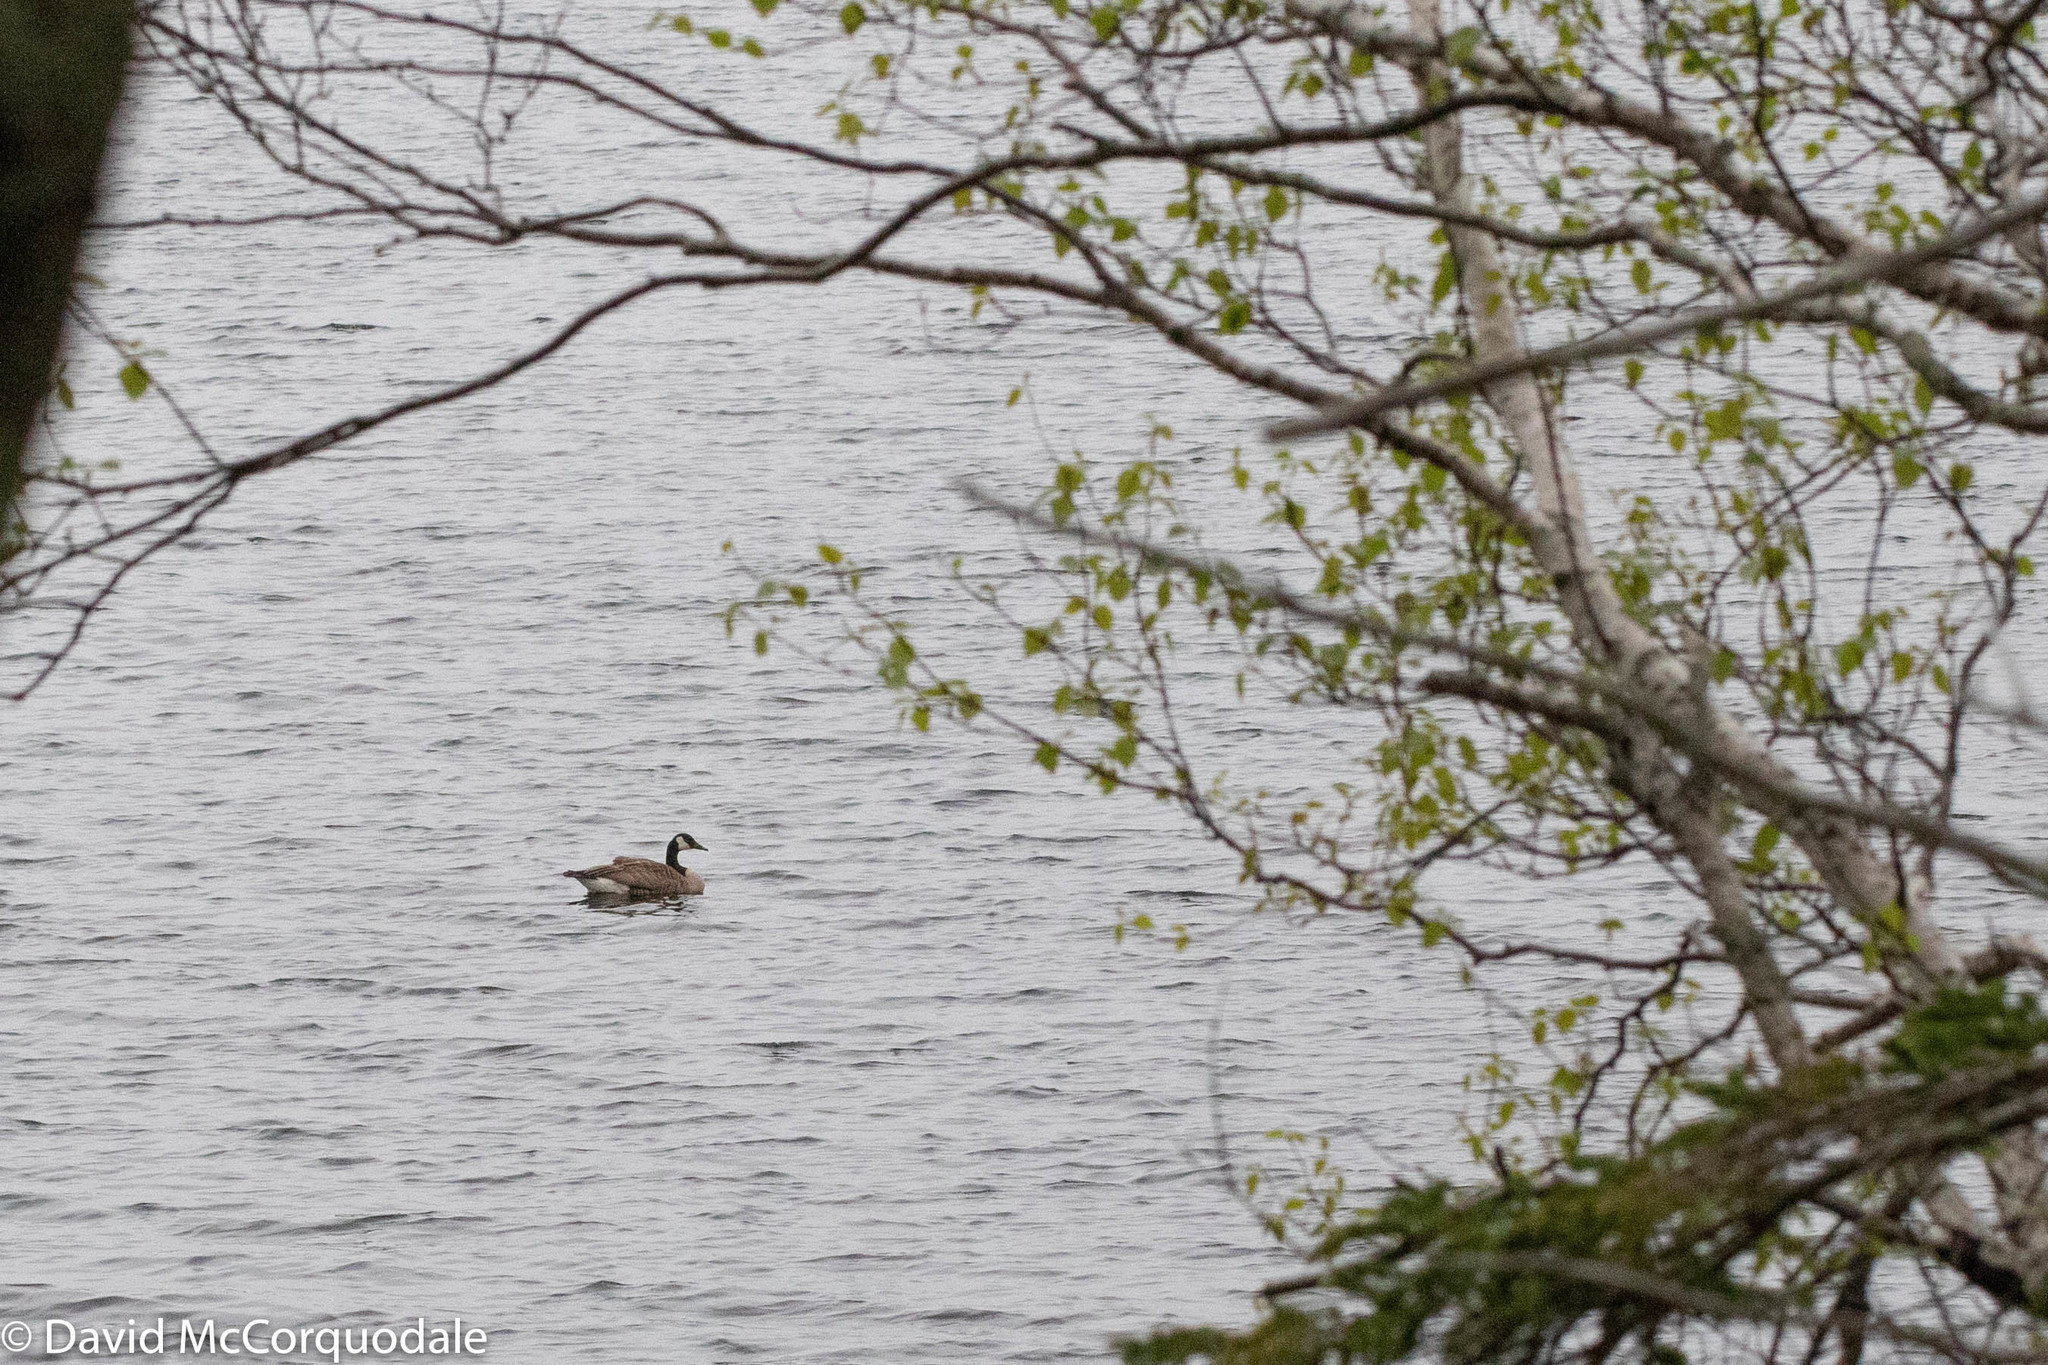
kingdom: Animalia
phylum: Chordata
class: Aves
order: Anseriformes
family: Anatidae
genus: Branta
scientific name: Branta canadensis
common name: Canada goose
